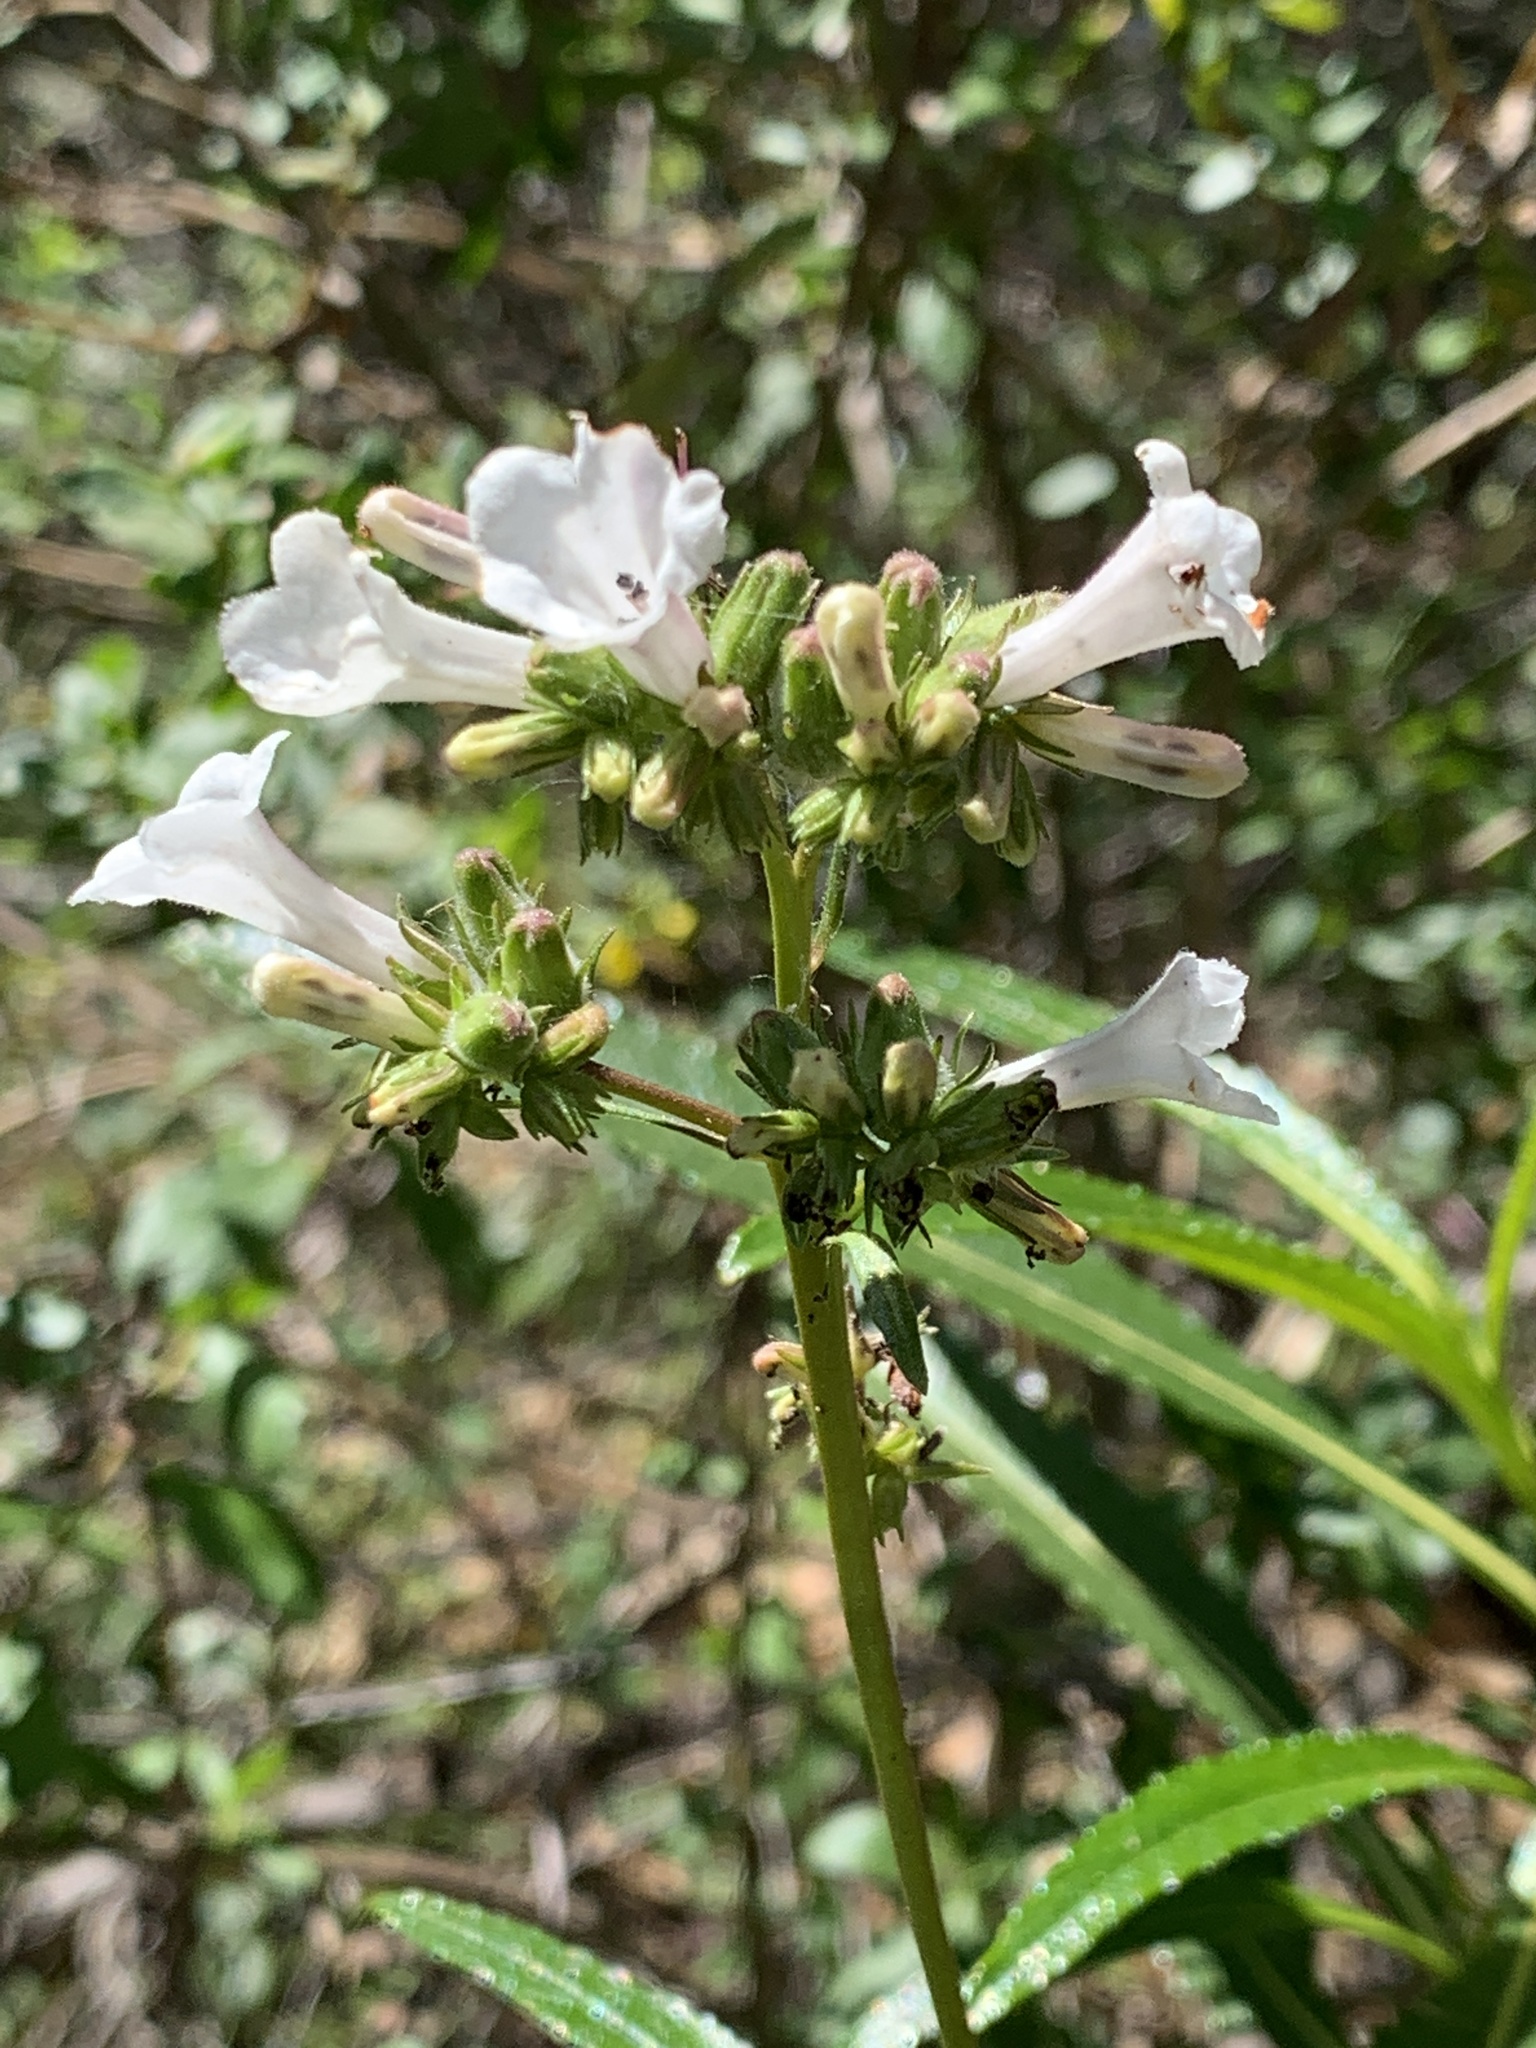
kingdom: Plantae
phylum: Tracheophyta
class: Magnoliopsida
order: Boraginales
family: Namaceae
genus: Eriodictyon
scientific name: Eriodictyon californicum
